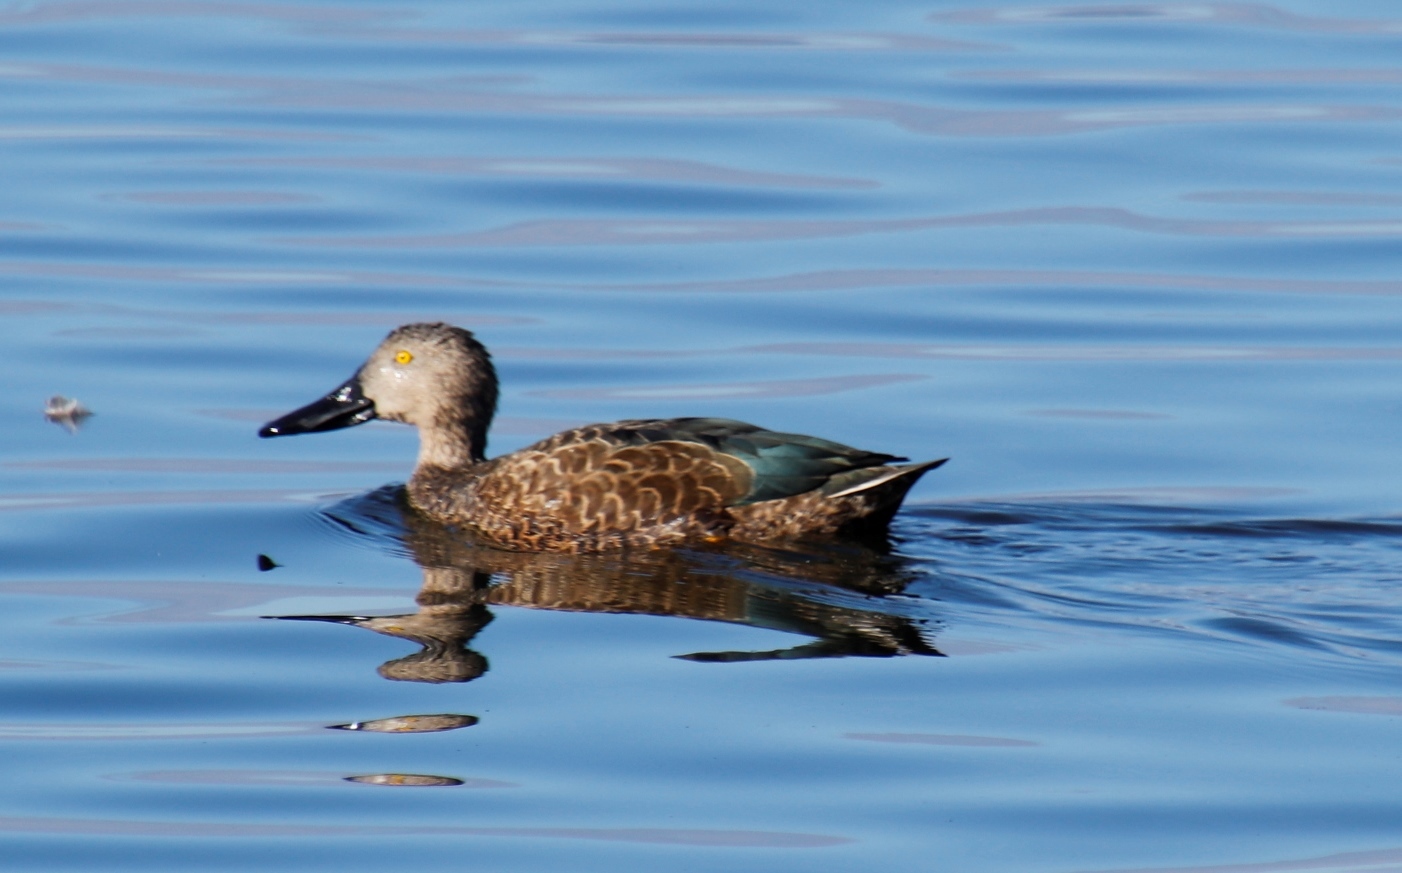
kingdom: Animalia
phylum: Chordata
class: Aves
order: Anseriformes
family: Anatidae
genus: Spatula
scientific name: Spatula smithii
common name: Cape shoveler
